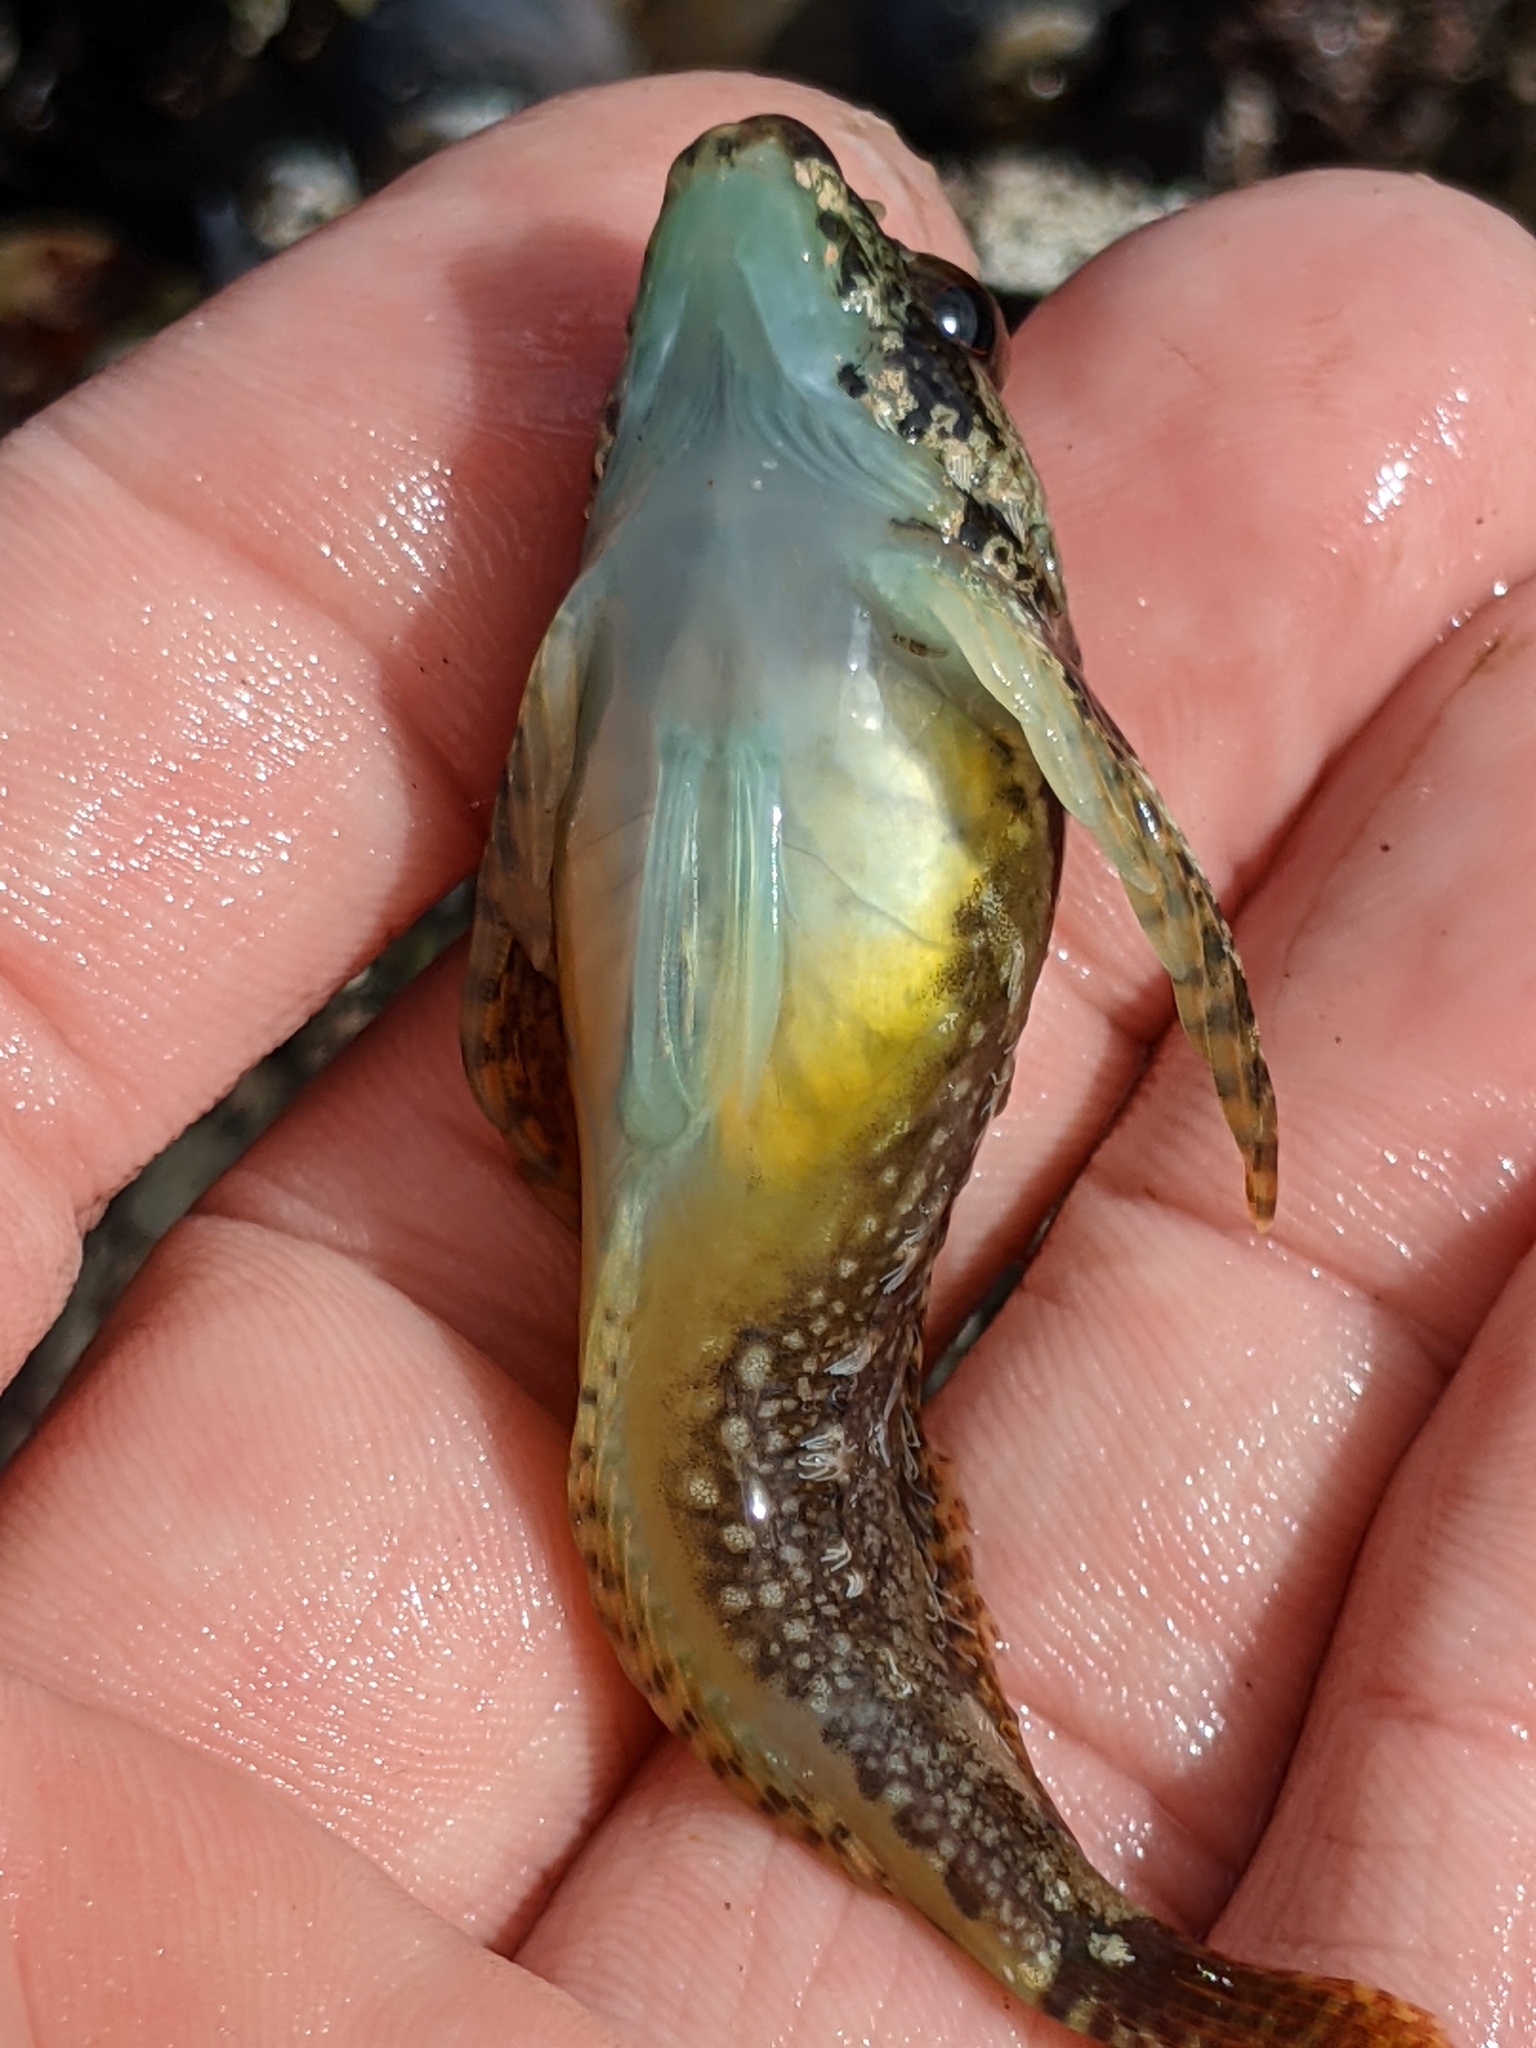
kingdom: Animalia
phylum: Chordata
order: Scorpaeniformes
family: Cottidae
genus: Oligocottus
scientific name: Oligocottus rubellio
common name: Rosy sculpin
